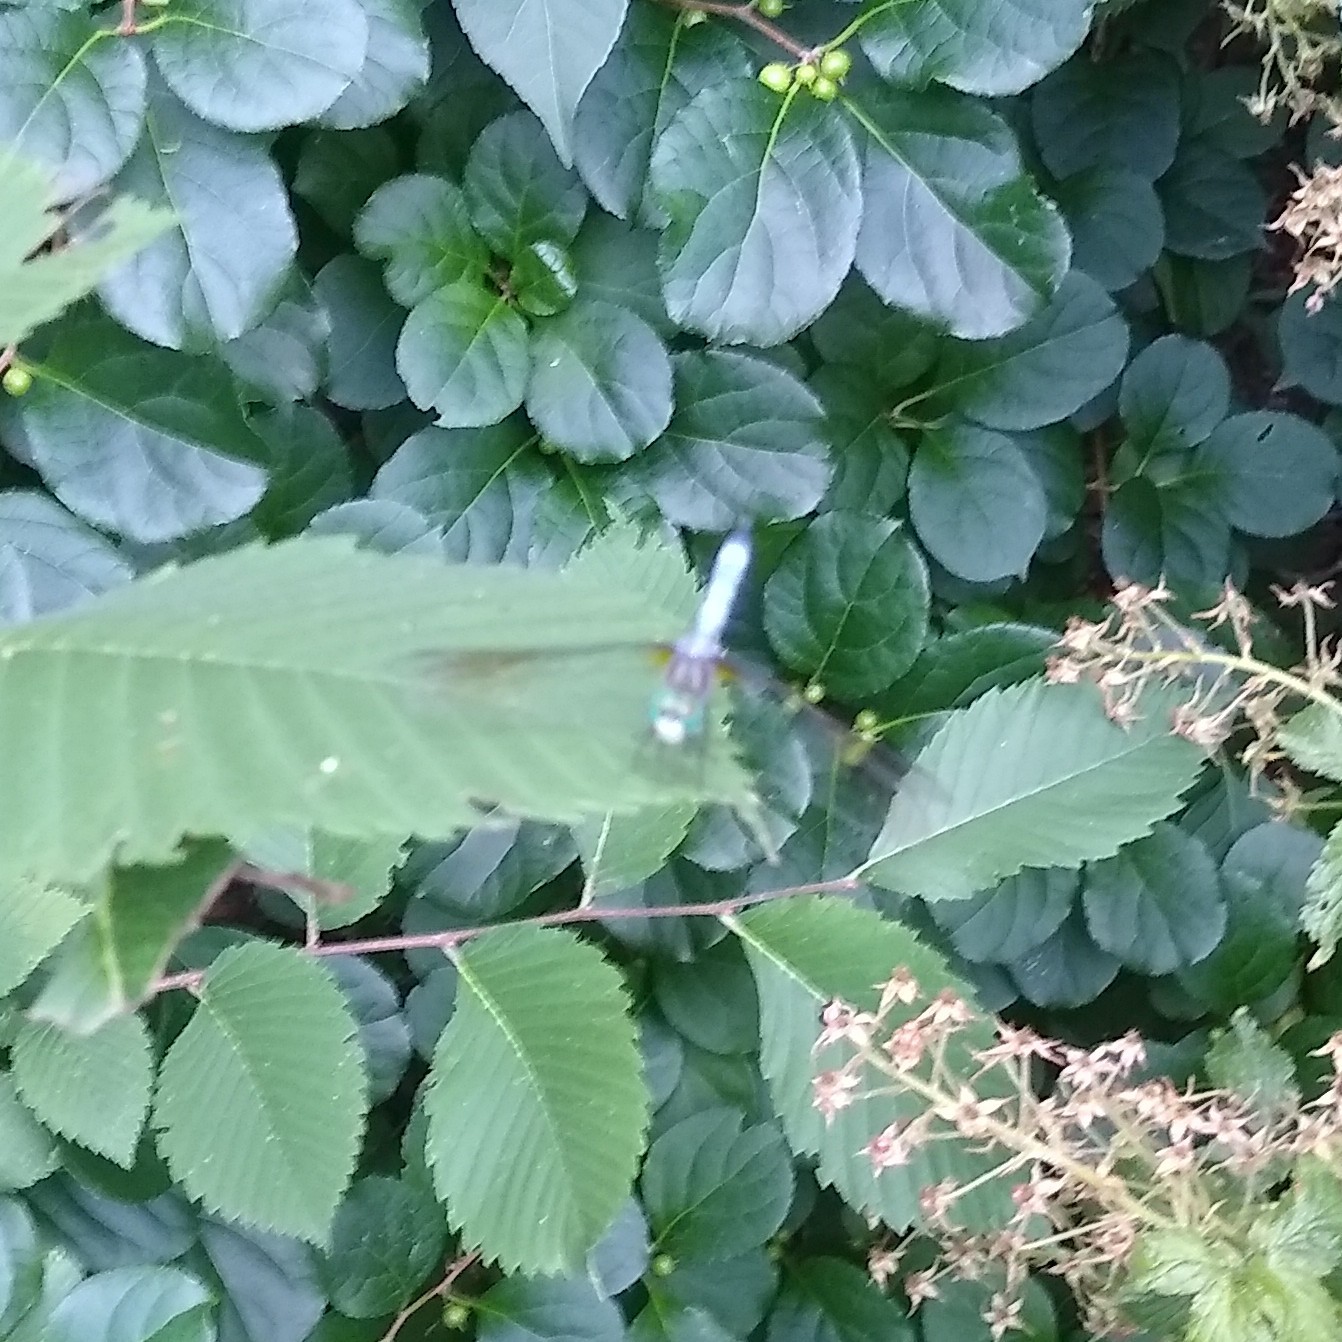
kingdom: Animalia
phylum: Arthropoda
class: Insecta
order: Odonata
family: Libellulidae
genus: Pachydiplax
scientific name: Pachydiplax longipennis
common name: Blue dasher
